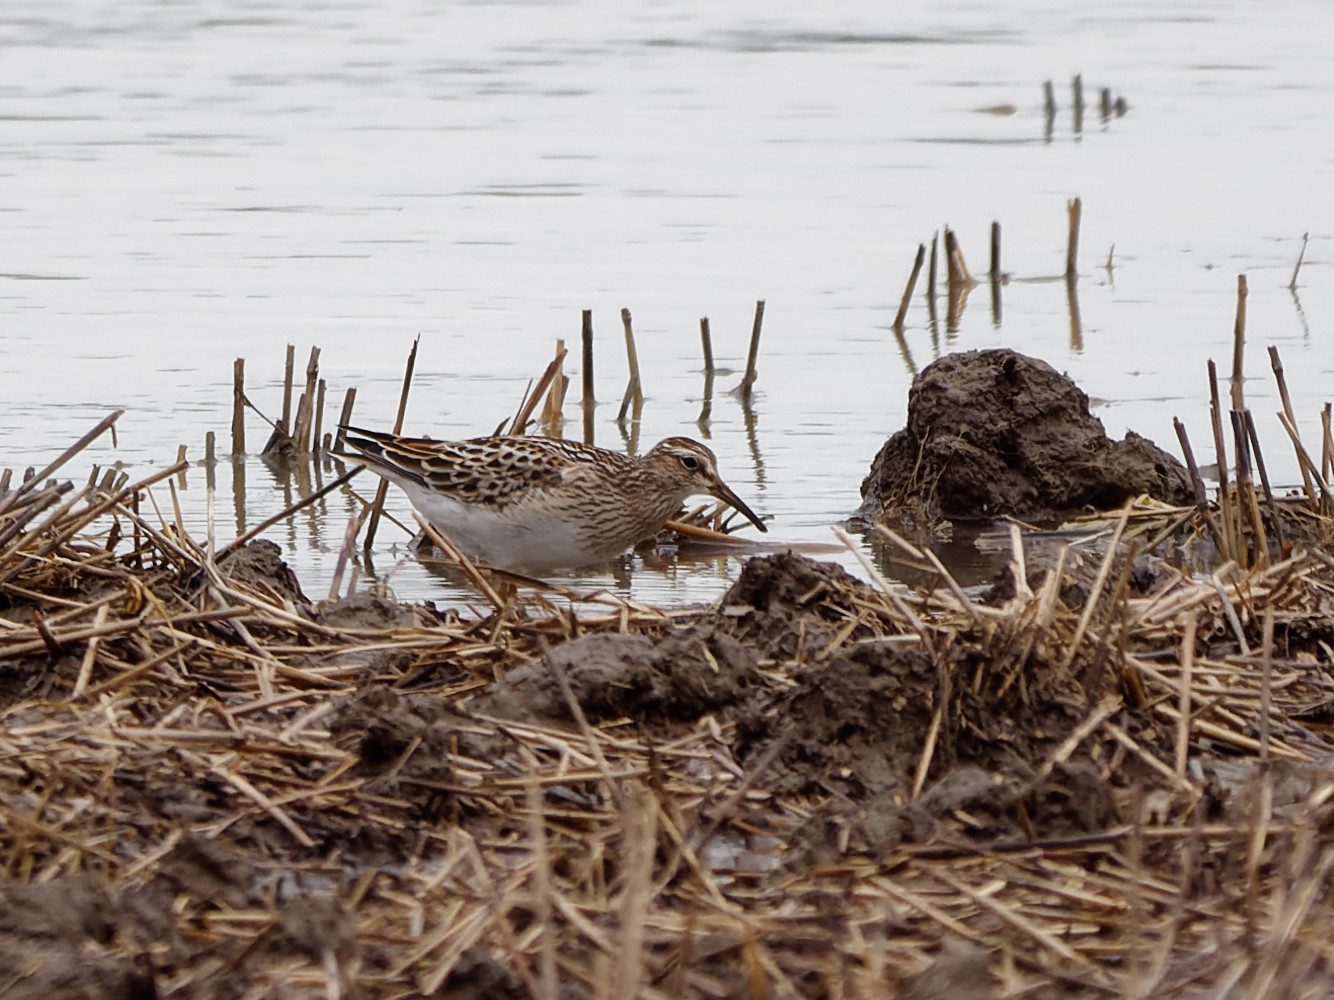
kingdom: Animalia
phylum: Chordata
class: Aves
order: Charadriiformes
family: Scolopacidae
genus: Calidris
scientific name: Calidris melanotos
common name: Pectoral sandpiper
